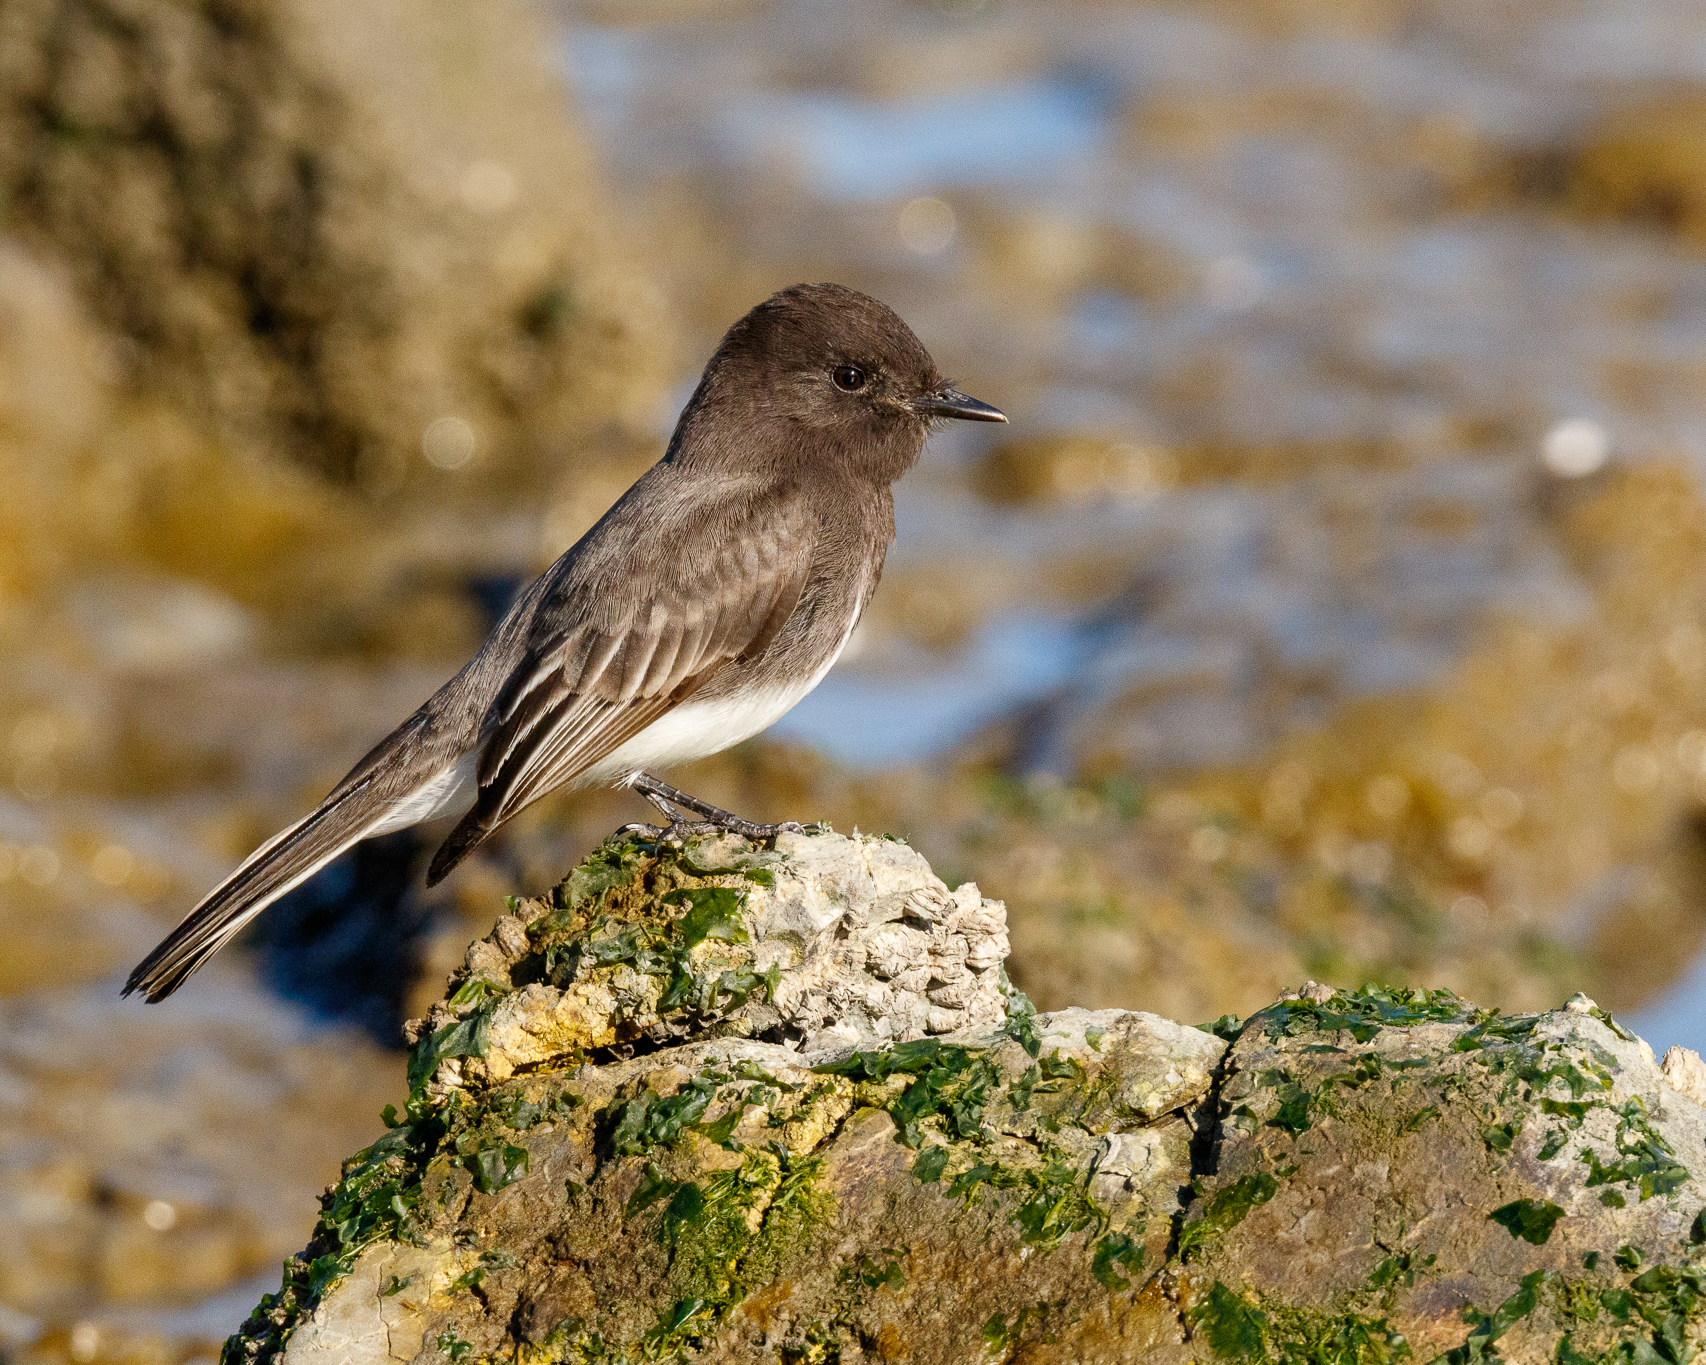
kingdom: Animalia
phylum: Chordata
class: Aves
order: Passeriformes
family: Tyrannidae
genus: Sayornis
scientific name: Sayornis nigricans
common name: Black phoebe
